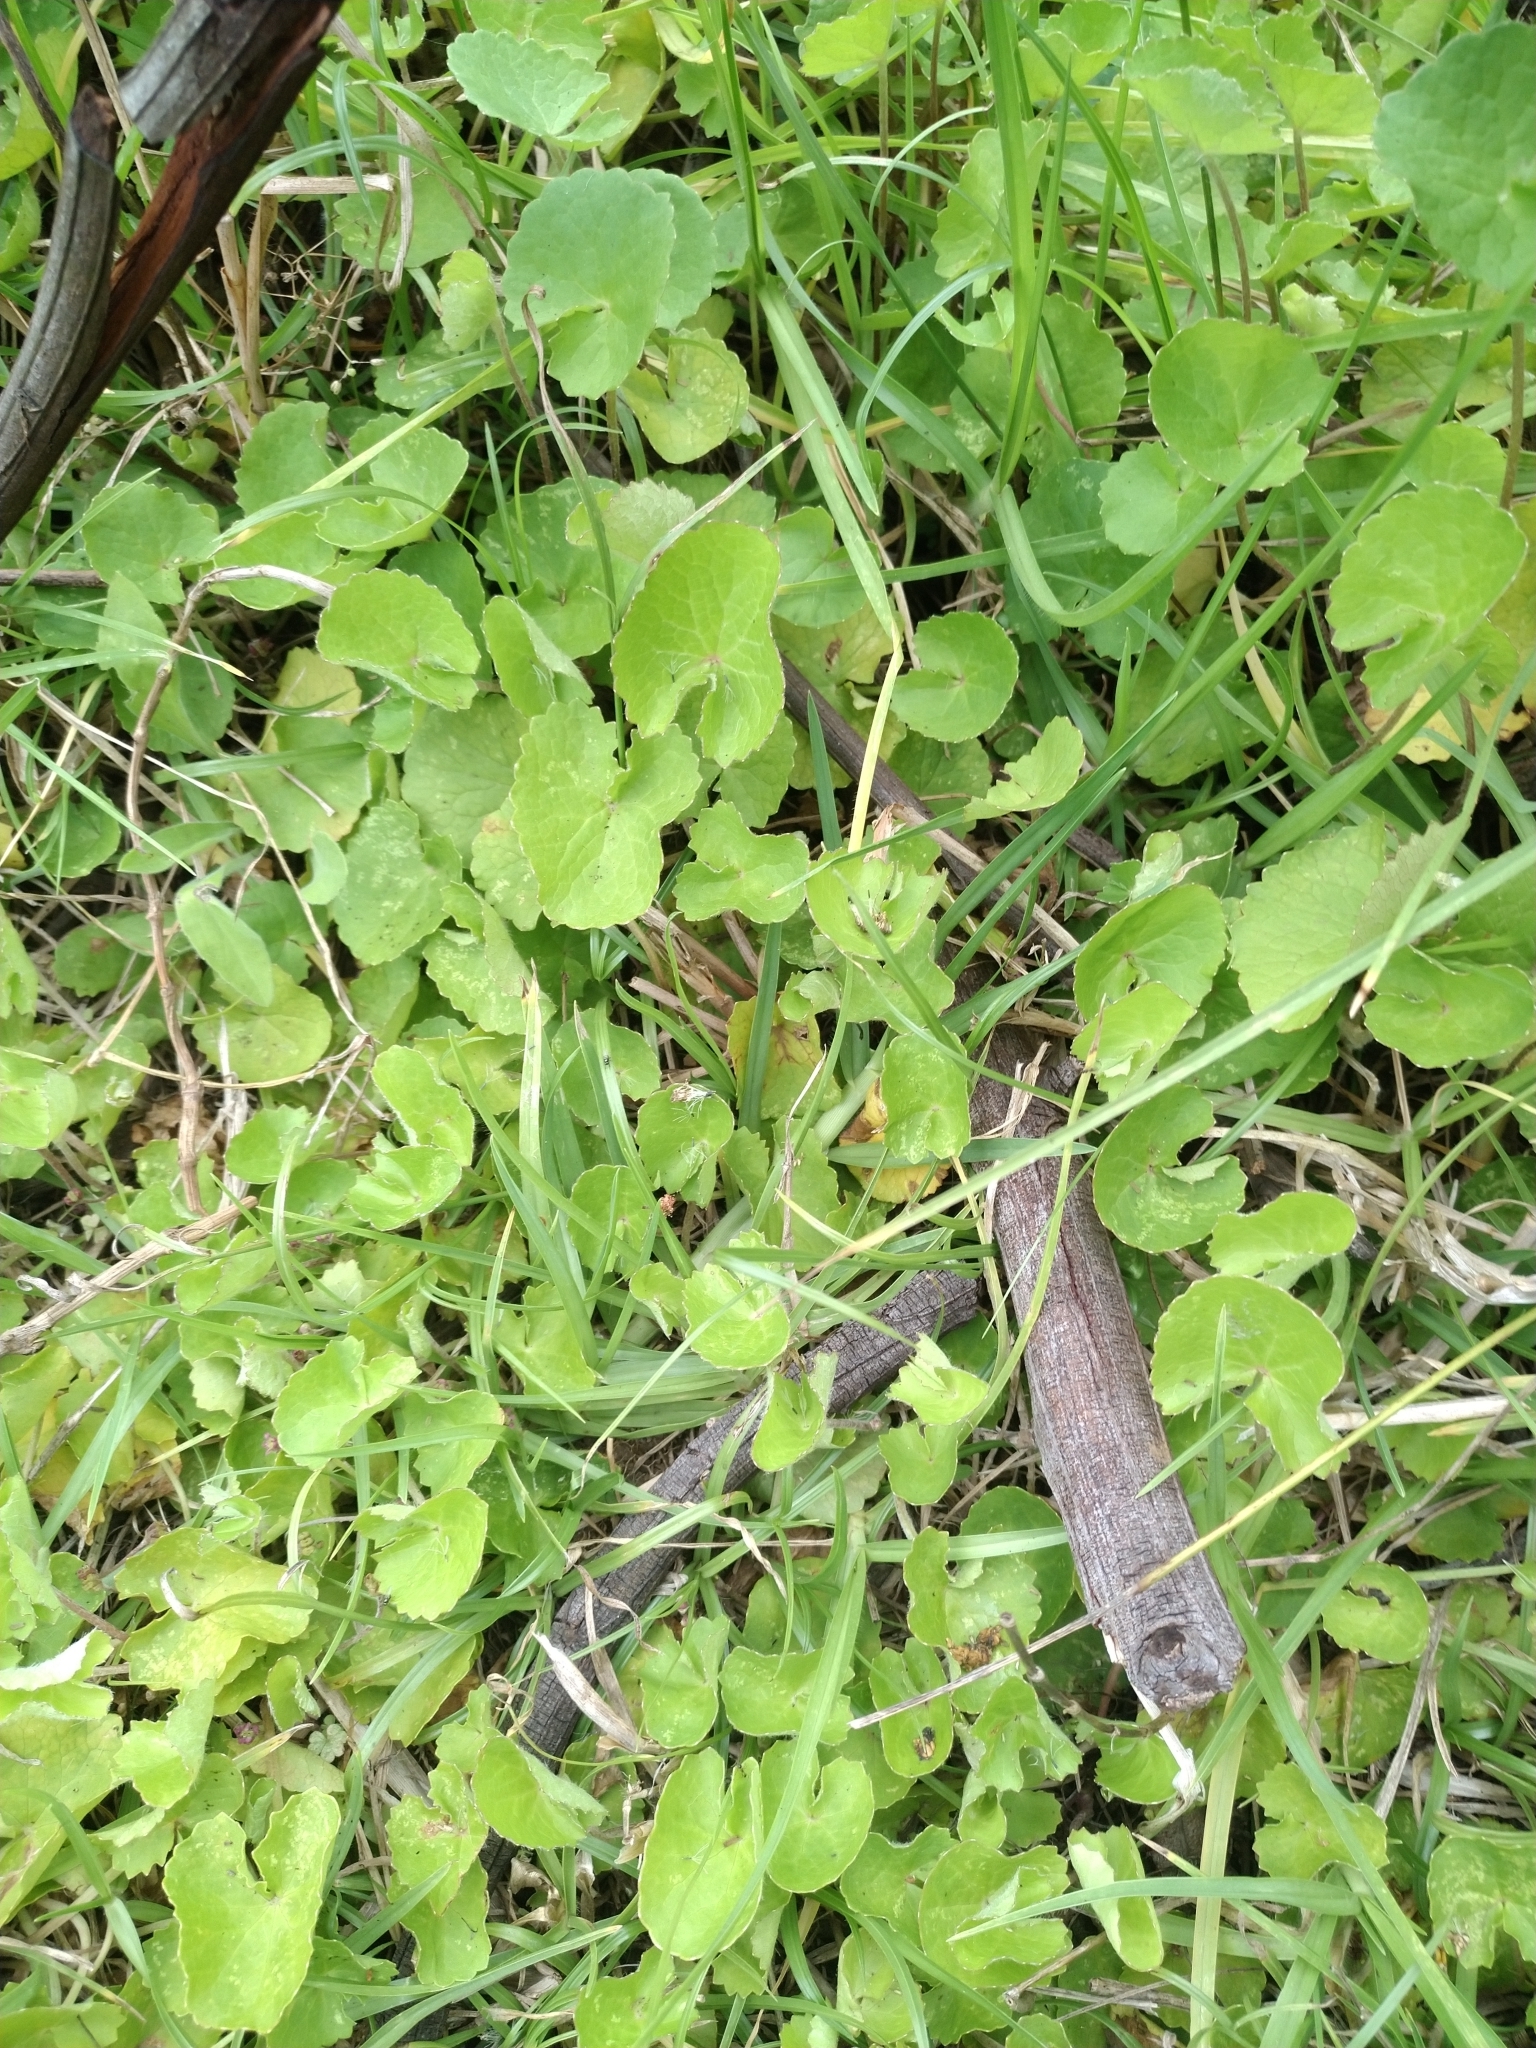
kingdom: Plantae
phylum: Tracheophyta
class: Magnoliopsida
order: Apiales
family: Apiaceae
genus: Centella
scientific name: Centella asiatica
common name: Spadeleaf
